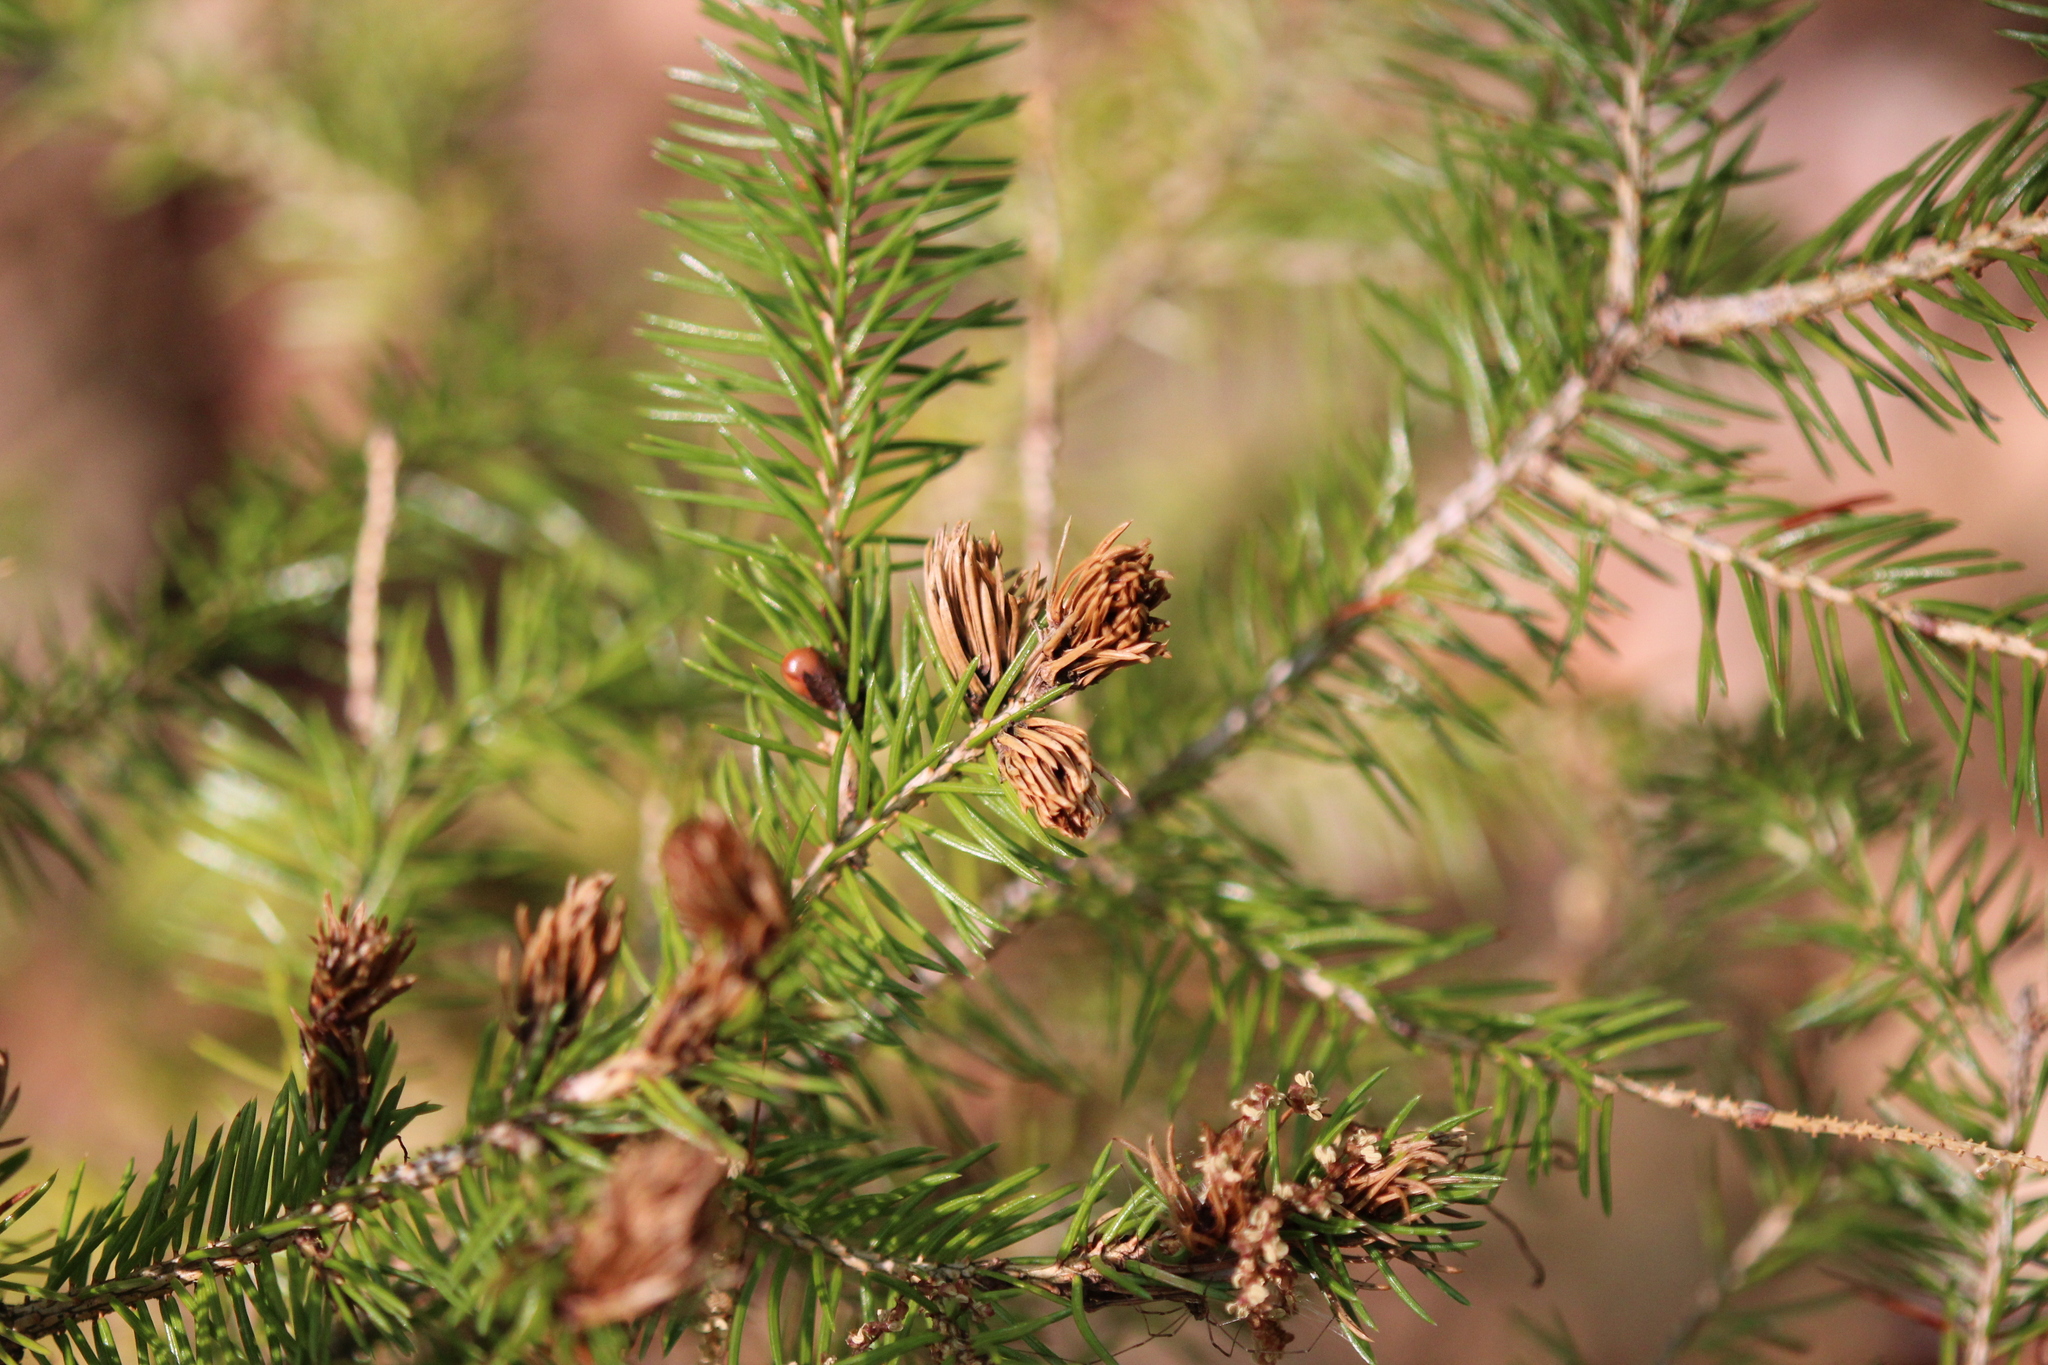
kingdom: Animalia
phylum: Arthropoda
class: Insecta
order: Hemiptera
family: Adelgidae
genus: Adelges
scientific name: Adelges abietis
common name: Eastern spruce gall adelgid
